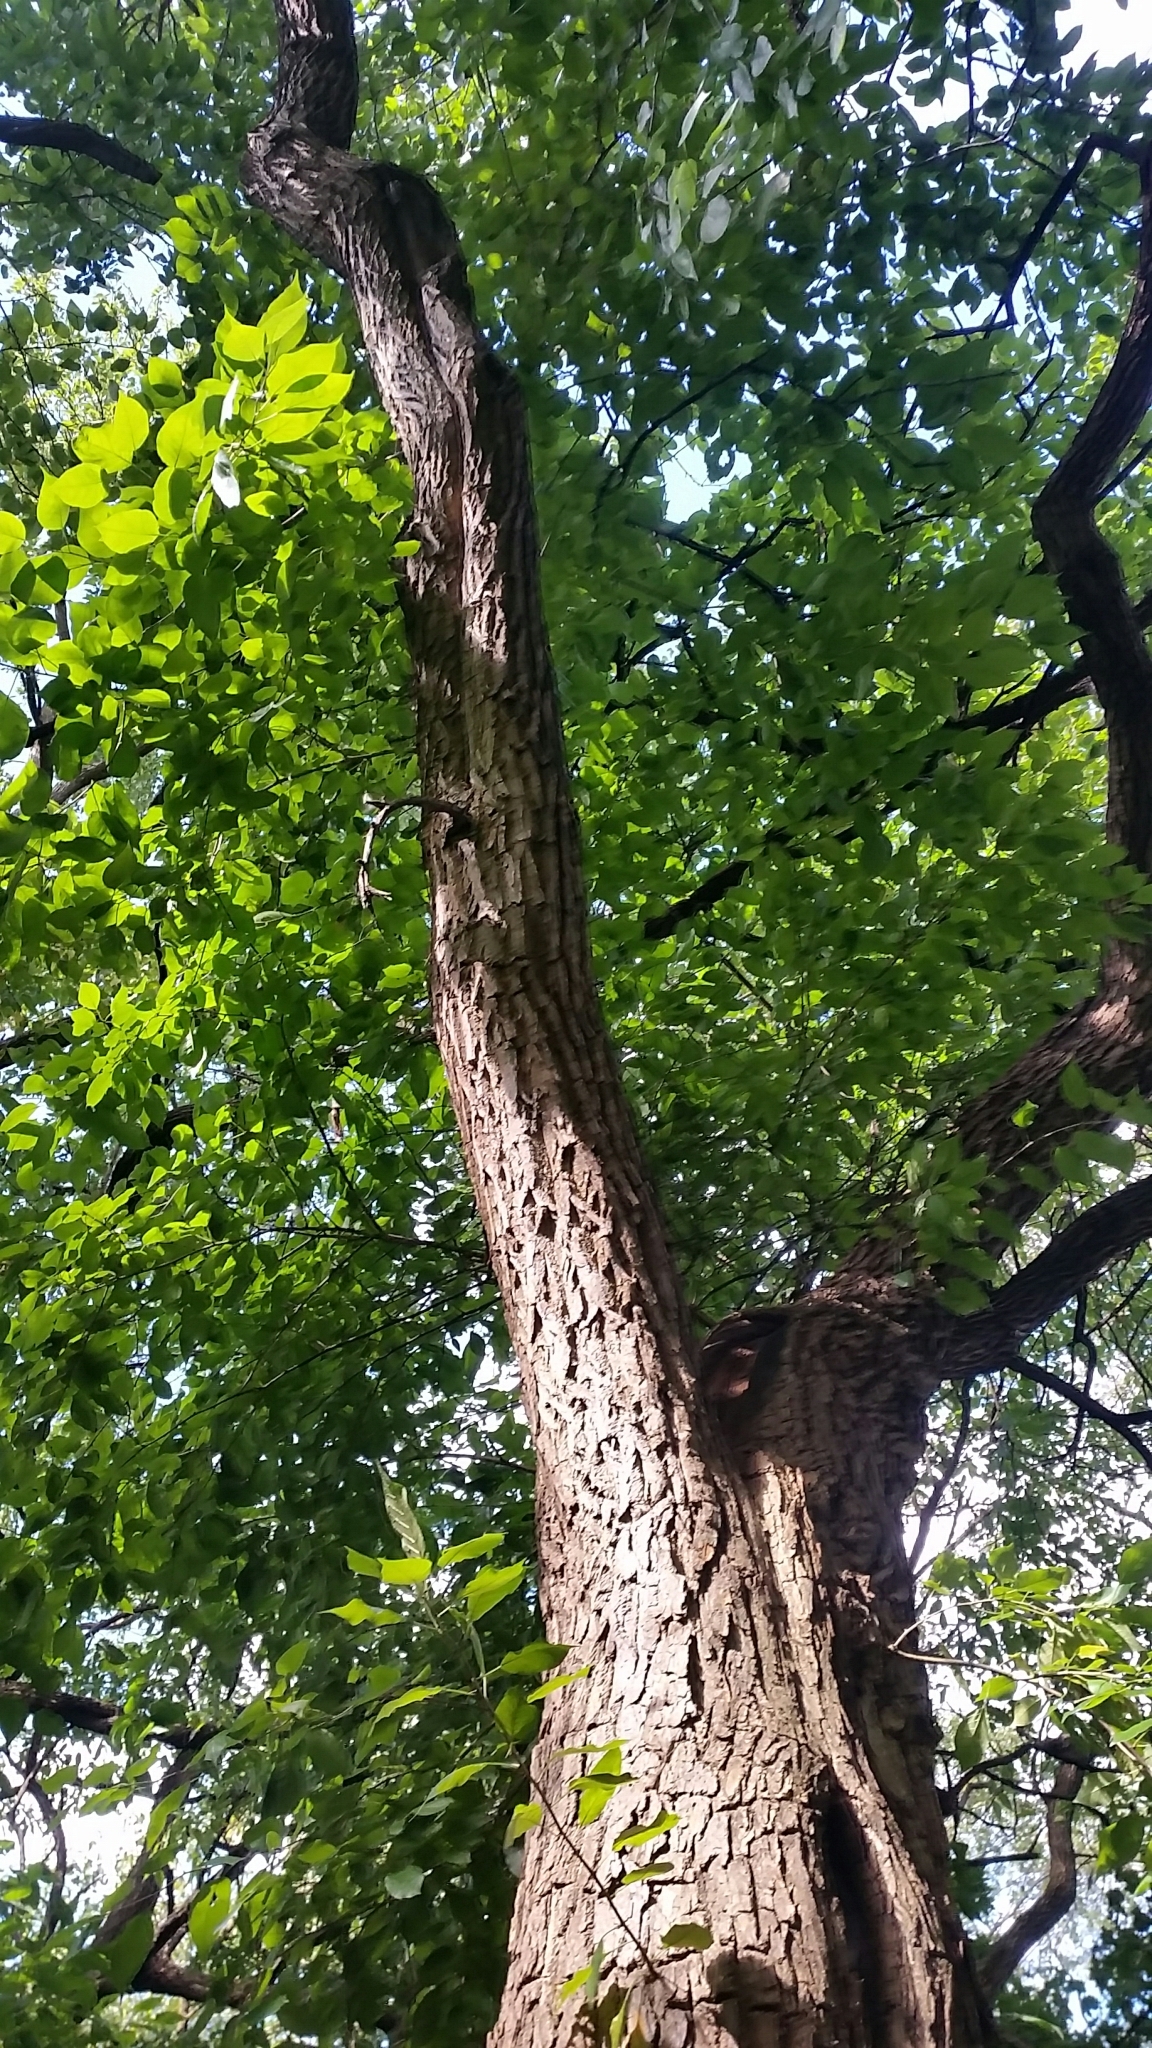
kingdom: Plantae
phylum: Tracheophyta
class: Magnoliopsida
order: Rosales
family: Moraceae
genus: Maclura
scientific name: Maclura pomifera
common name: Osage-orange
